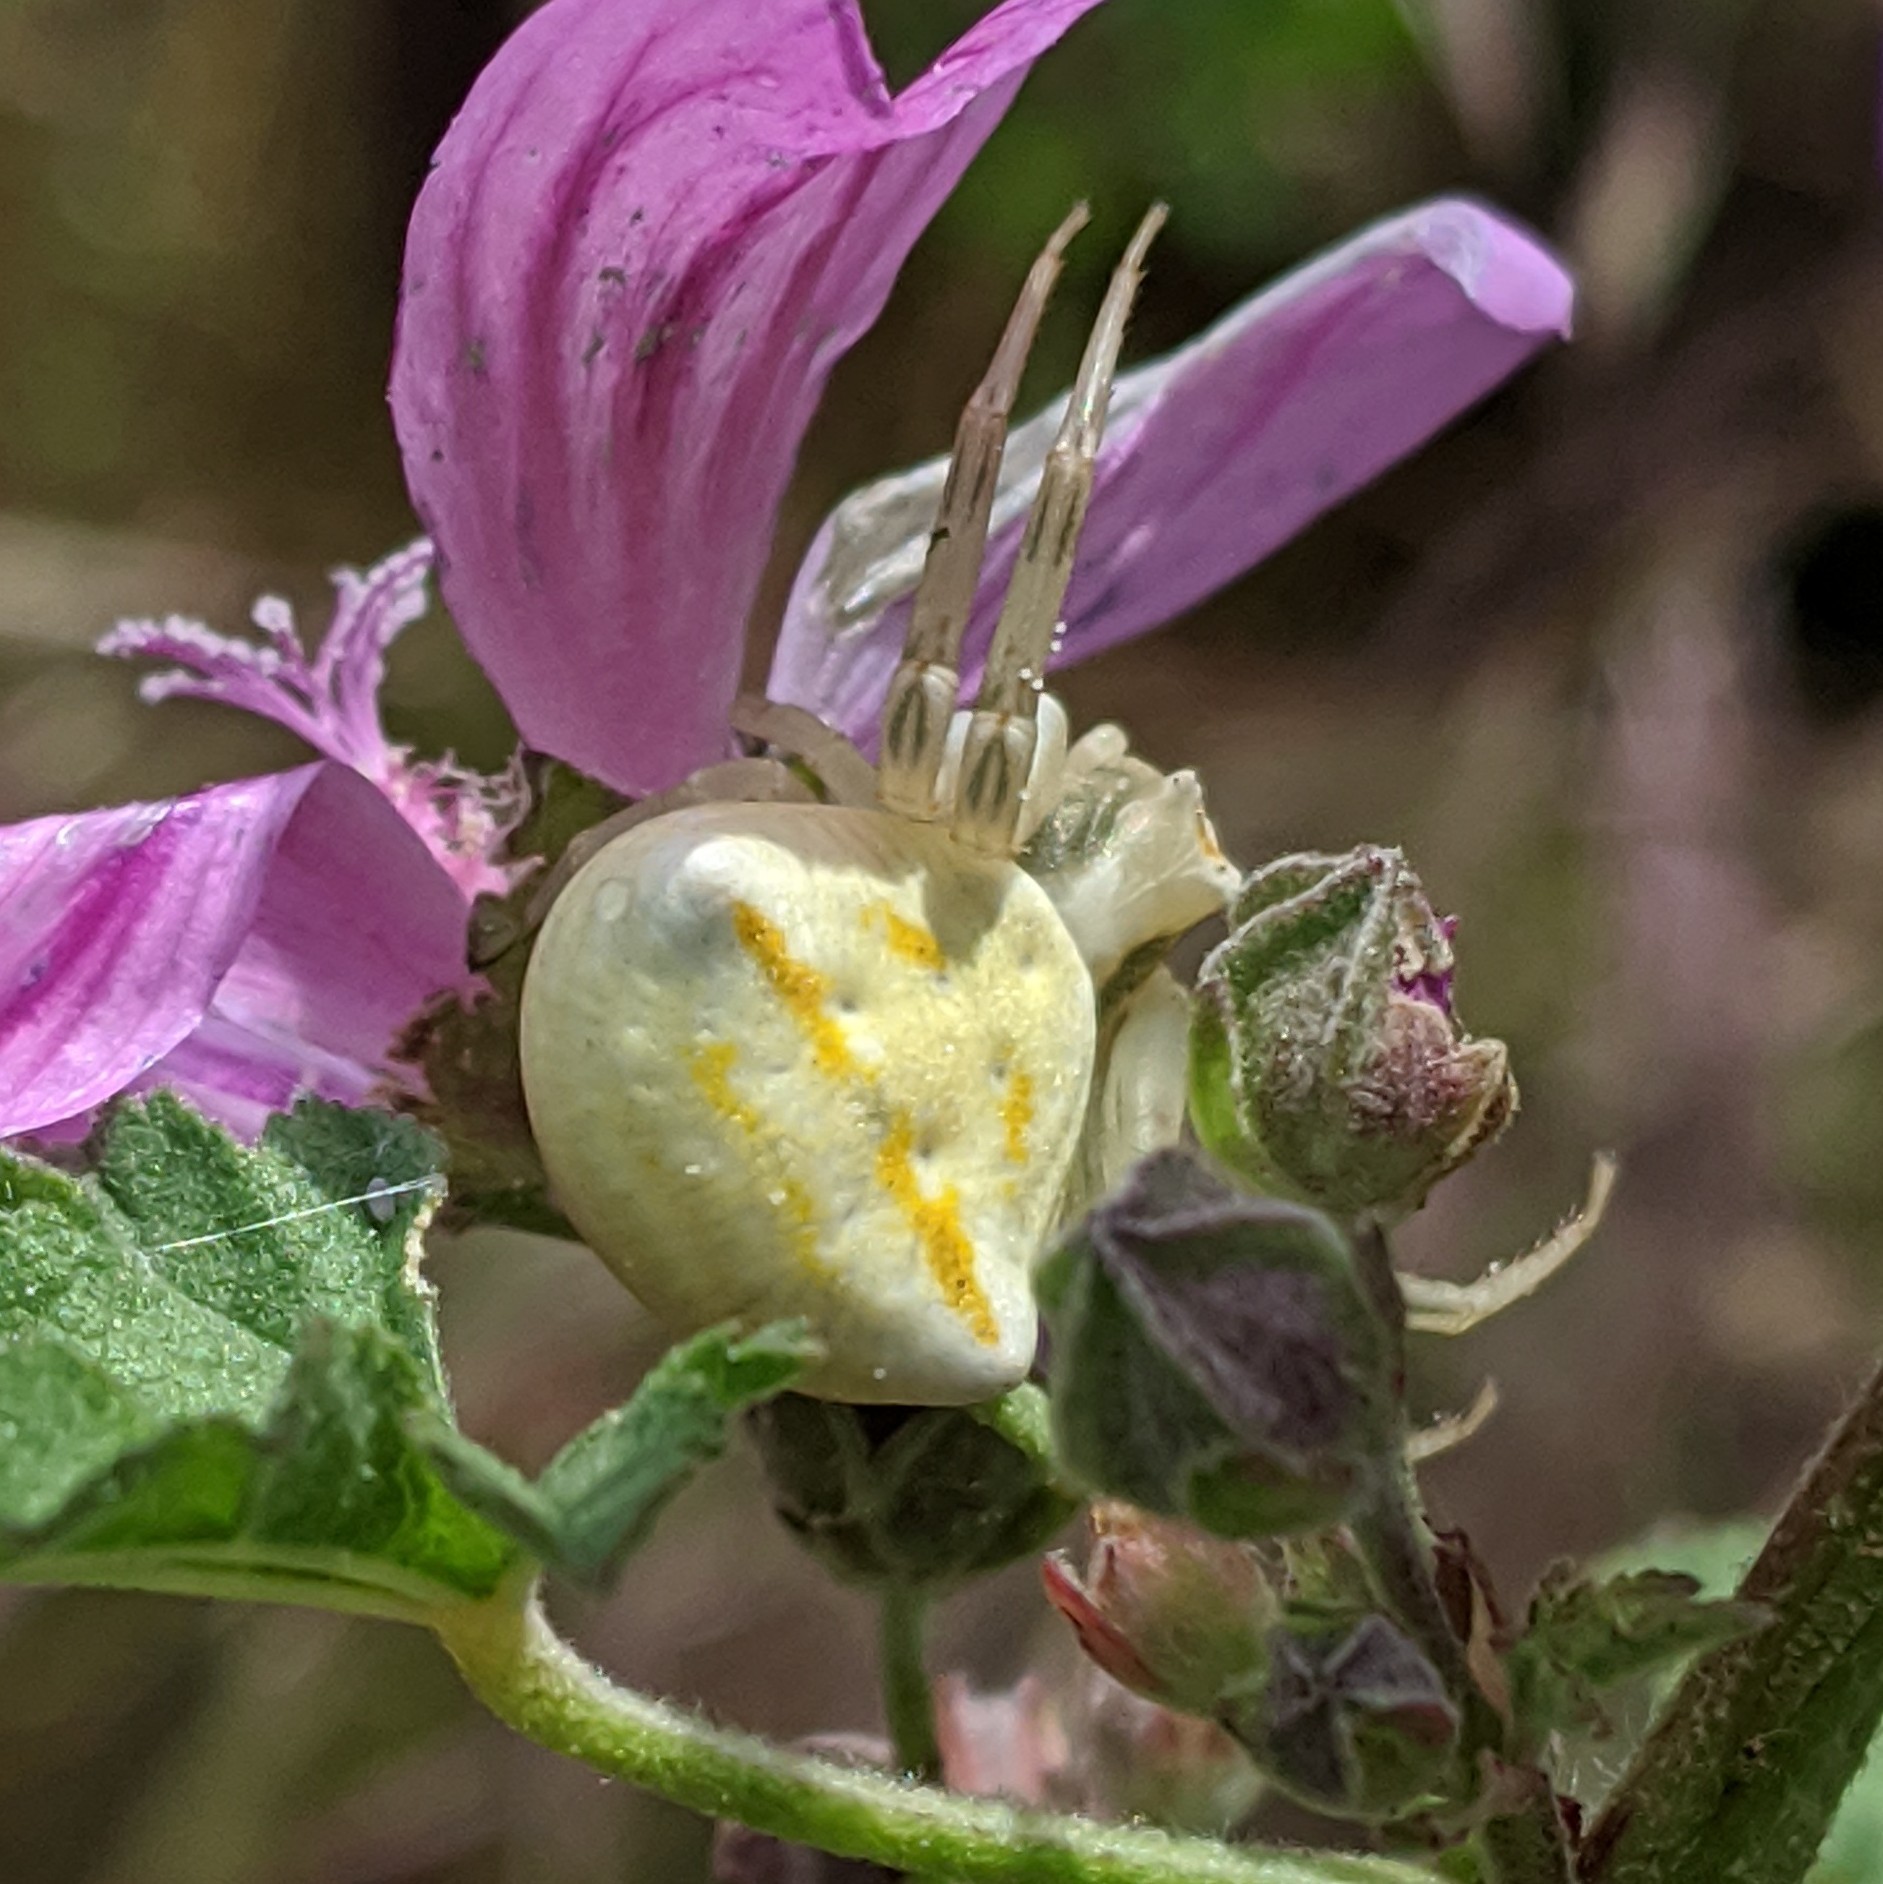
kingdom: Animalia
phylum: Arthropoda
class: Arachnida
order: Araneae
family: Thomisidae
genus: Thomisus
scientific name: Thomisus onustus
